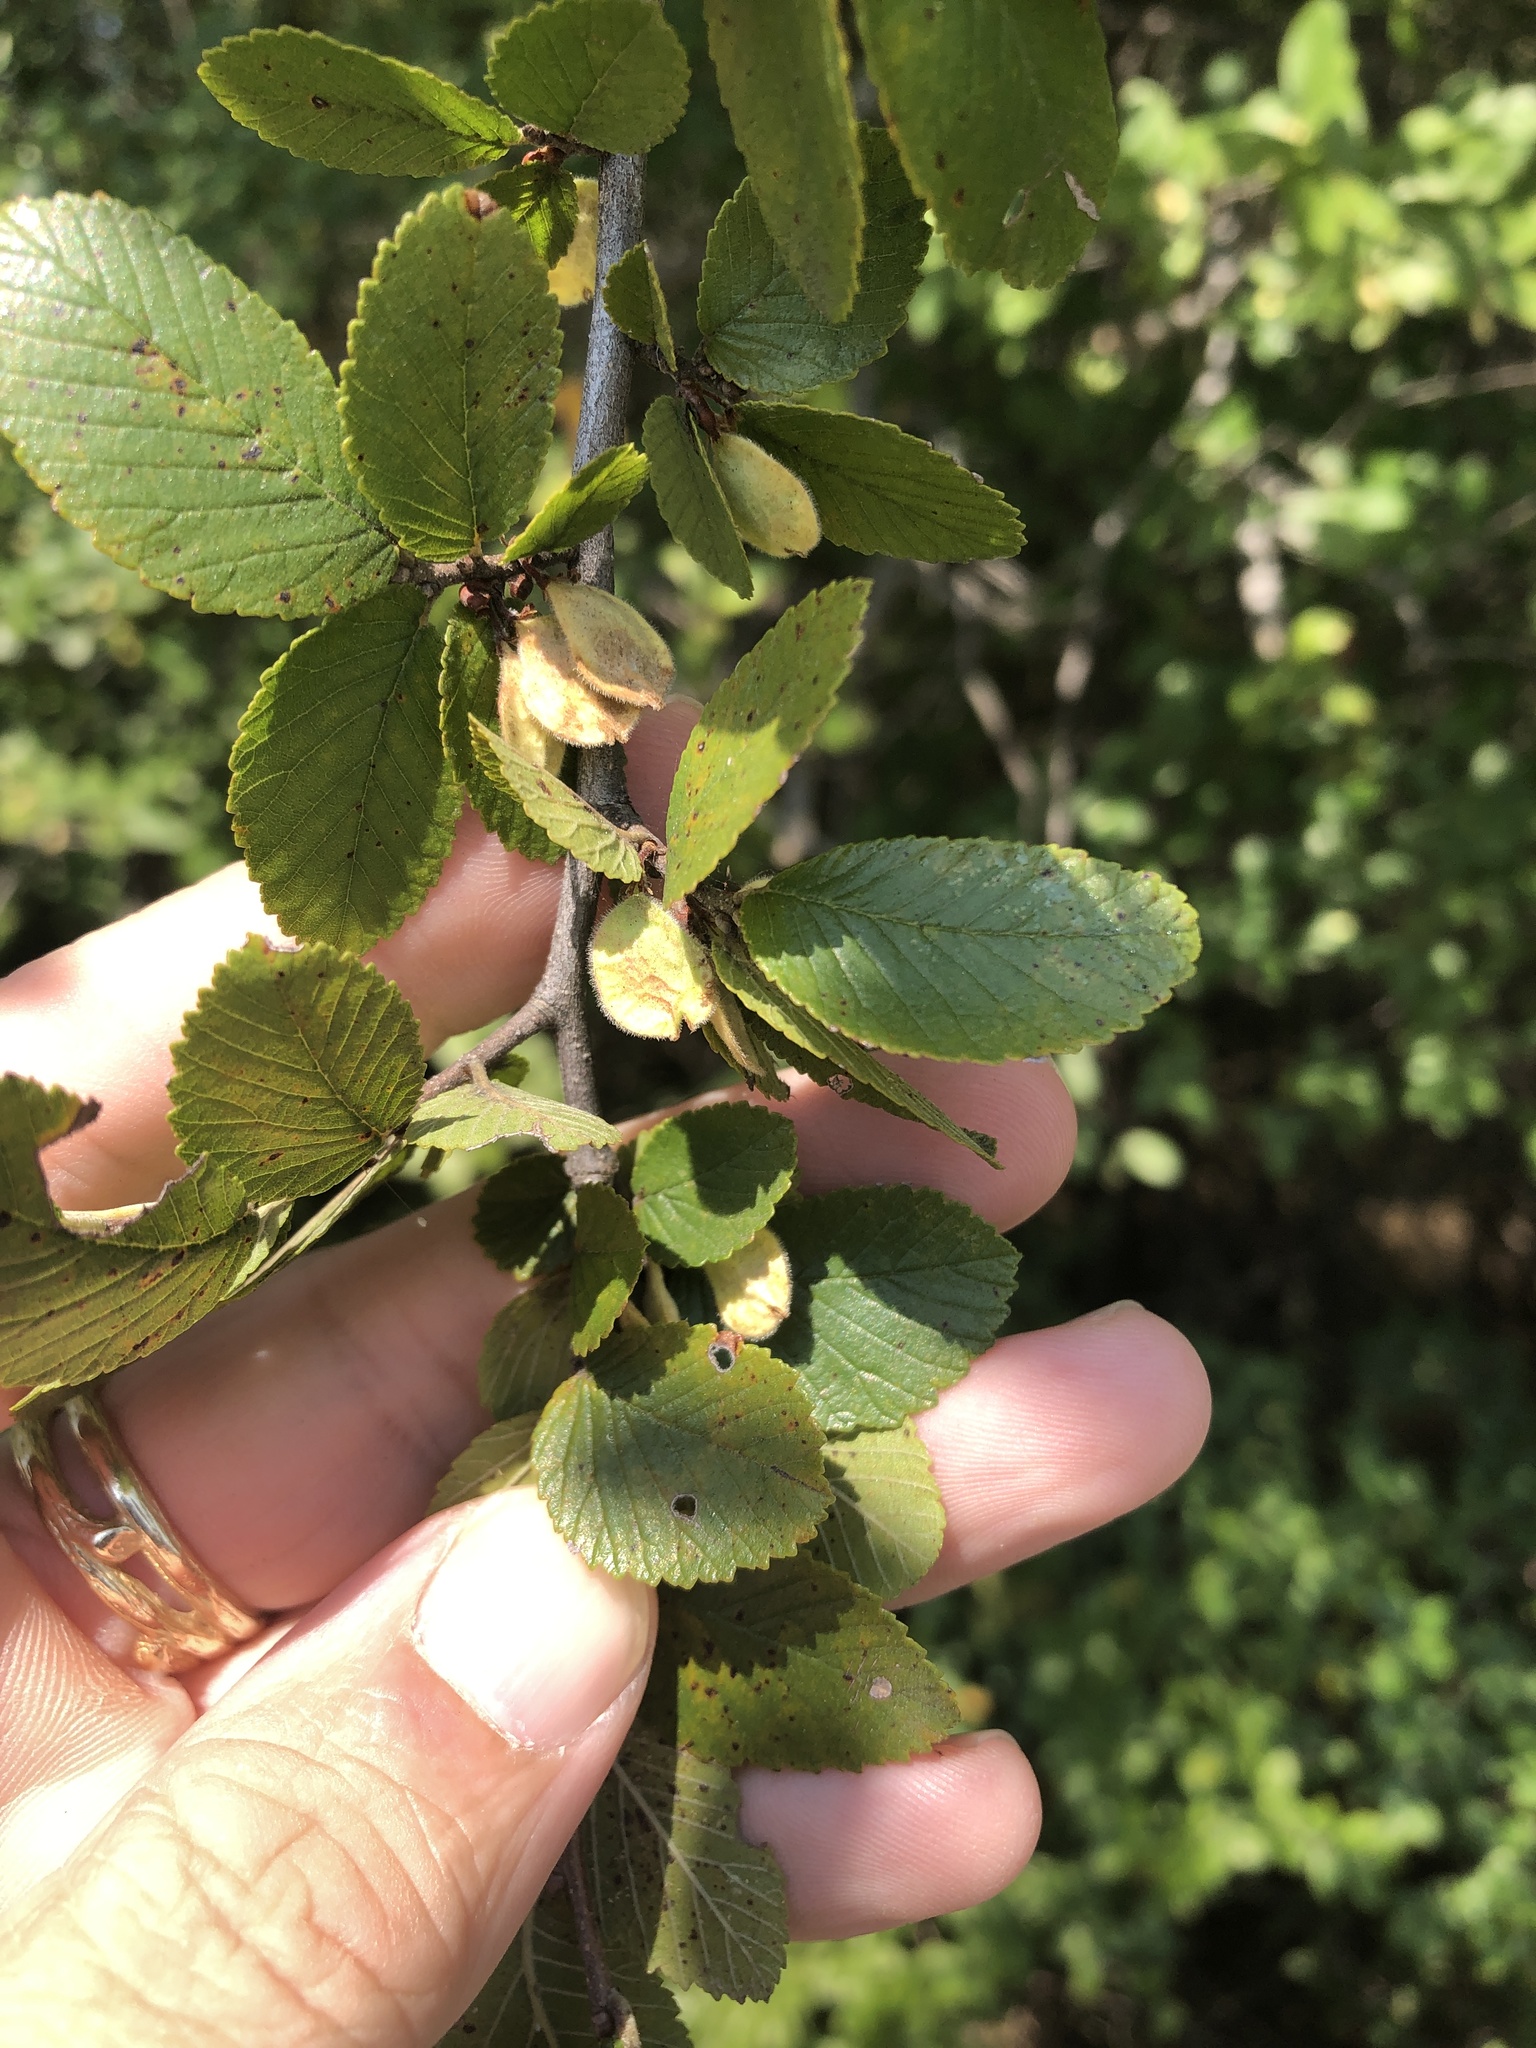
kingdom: Plantae
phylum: Tracheophyta
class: Magnoliopsida
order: Rosales
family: Ulmaceae
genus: Ulmus
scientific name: Ulmus crassifolia
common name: Basket elm
